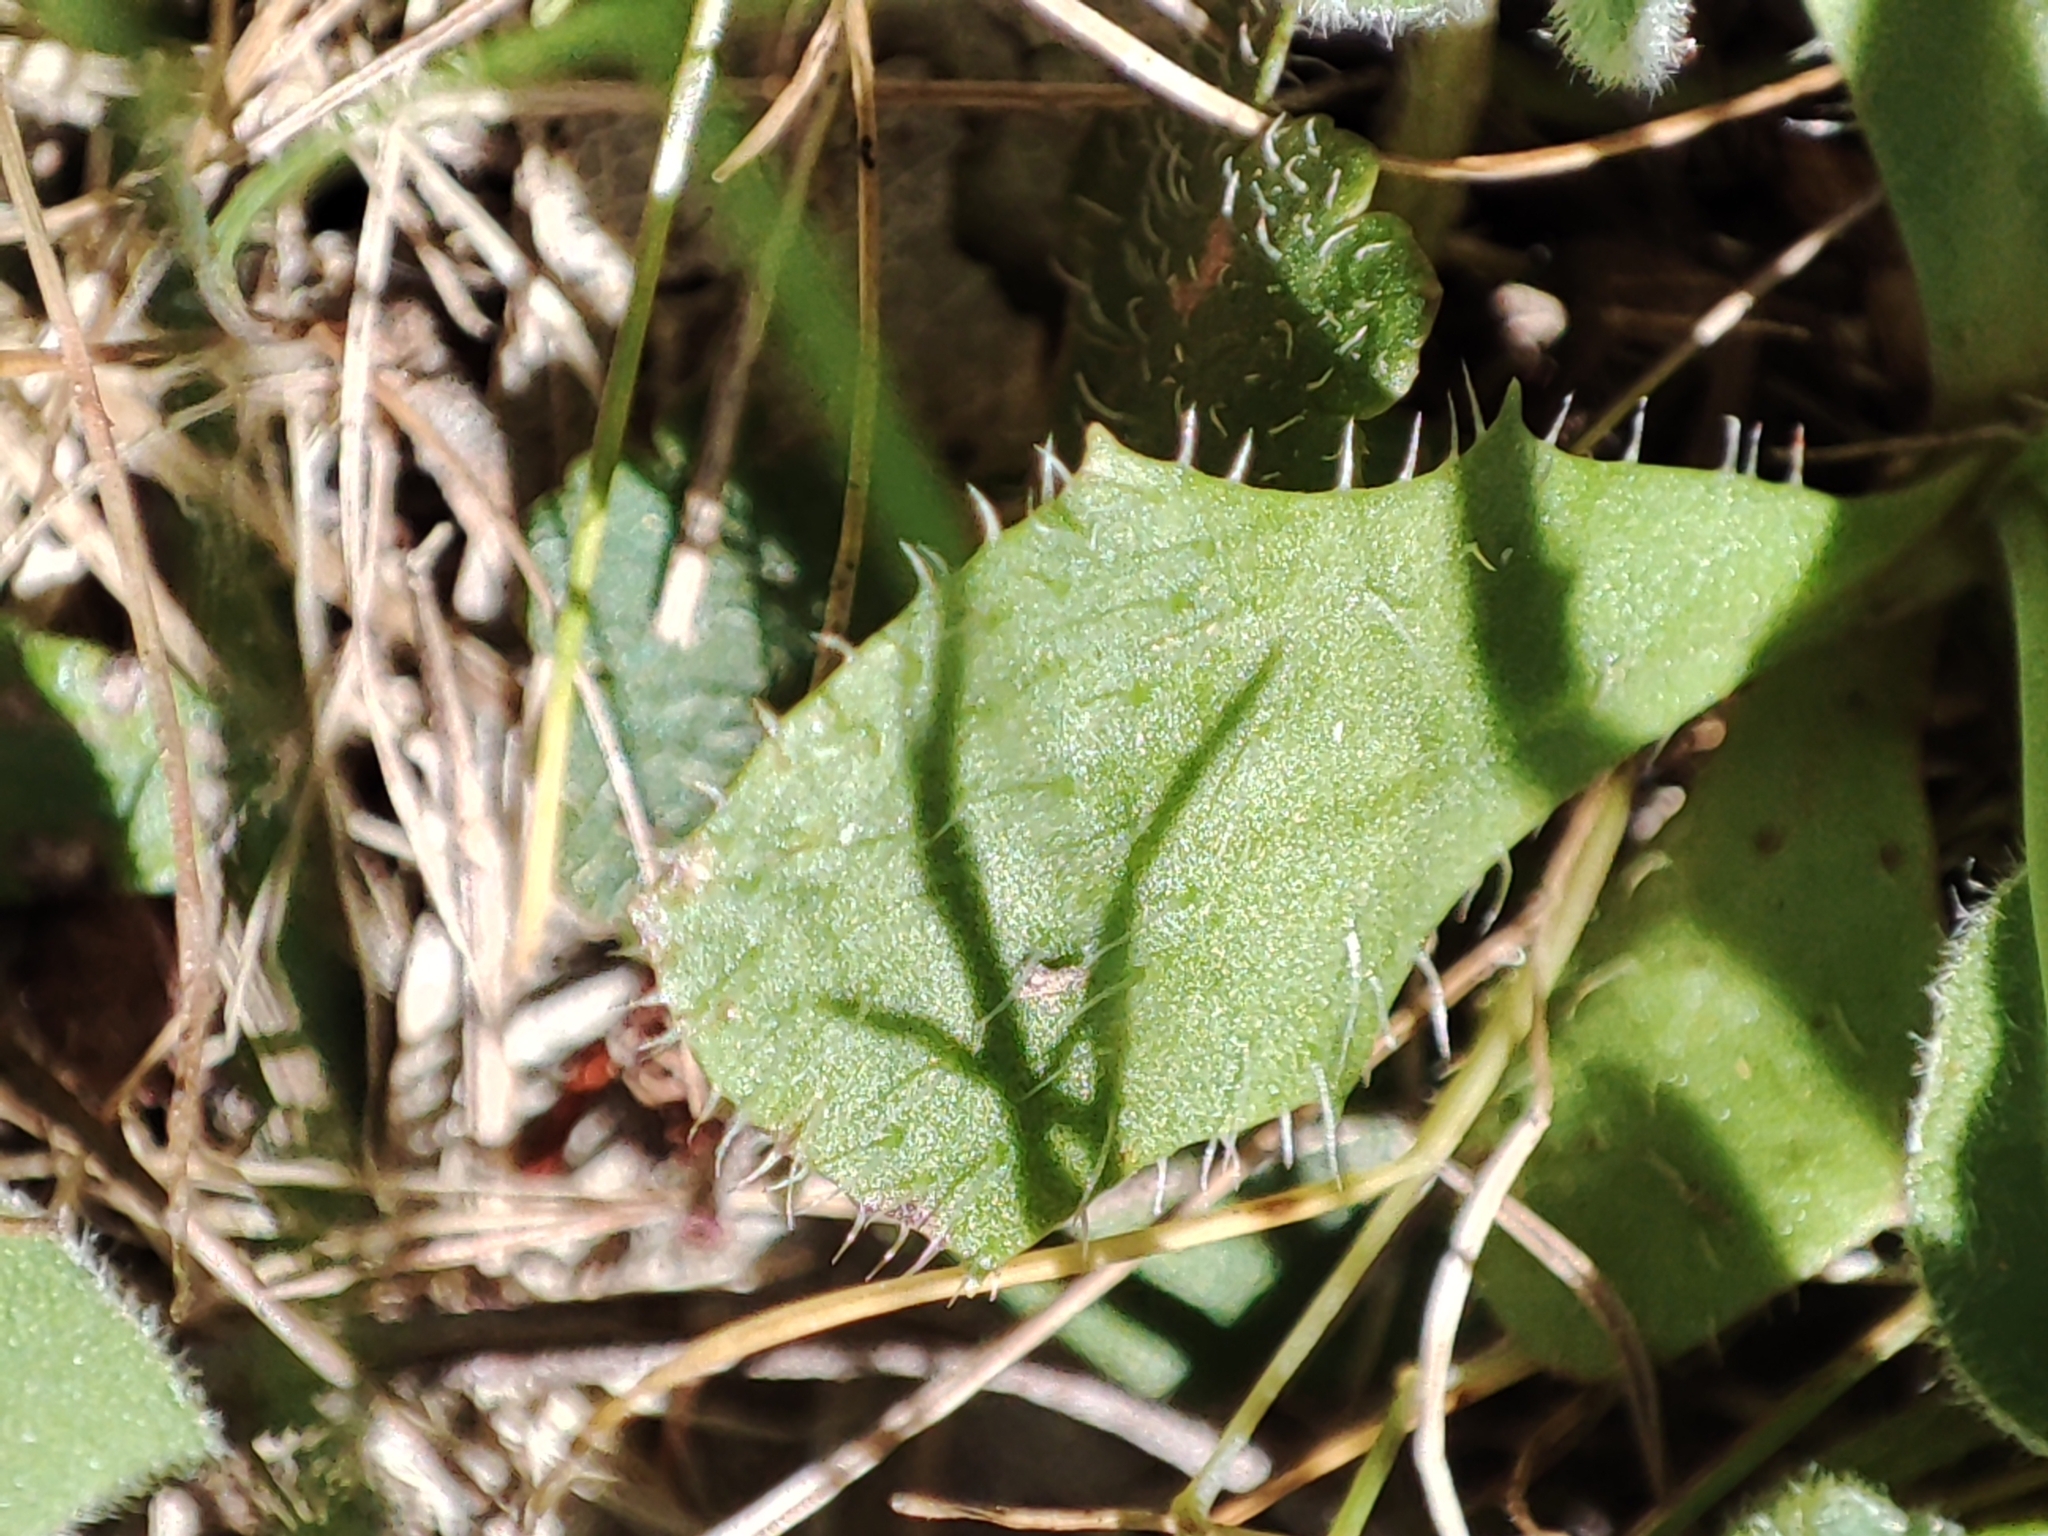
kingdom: Plantae
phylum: Tracheophyta
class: Magnoliopsida
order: Asterales
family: Asteraceae
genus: Hypochaeris
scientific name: Hypochaeris glabra
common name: Smooth catsear
